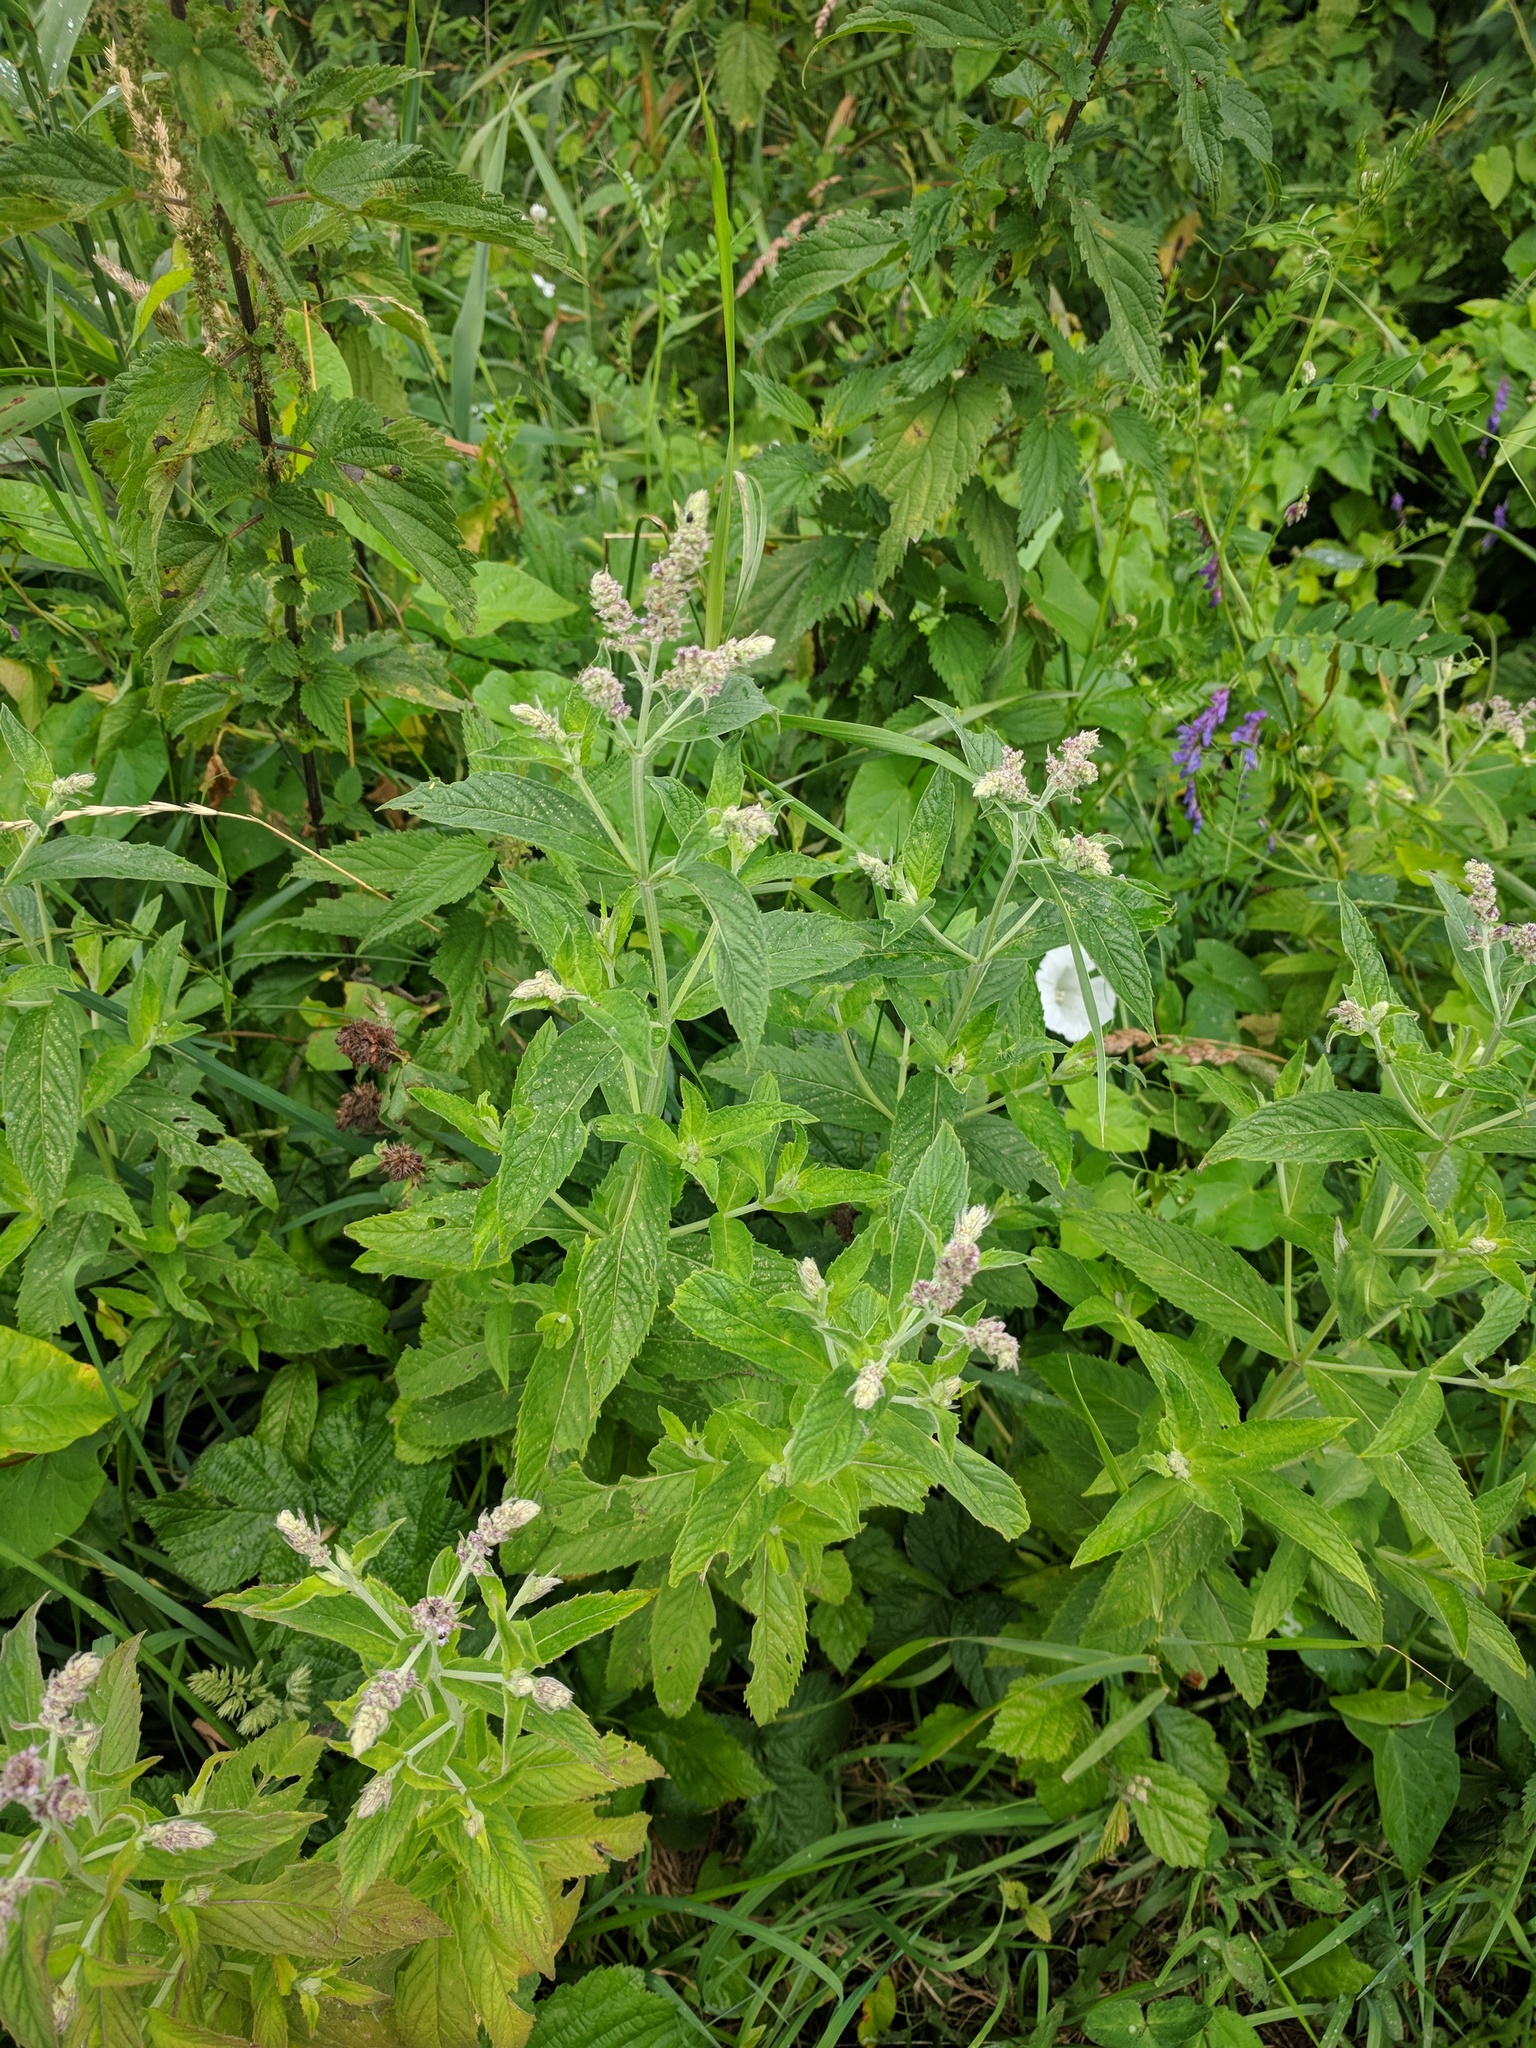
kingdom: Plantae
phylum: Tracheophyta
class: Magnoliopsida
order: Lamiales
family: Lamiaceae
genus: Mentha
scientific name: Mentha longifolia
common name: Horse mint
